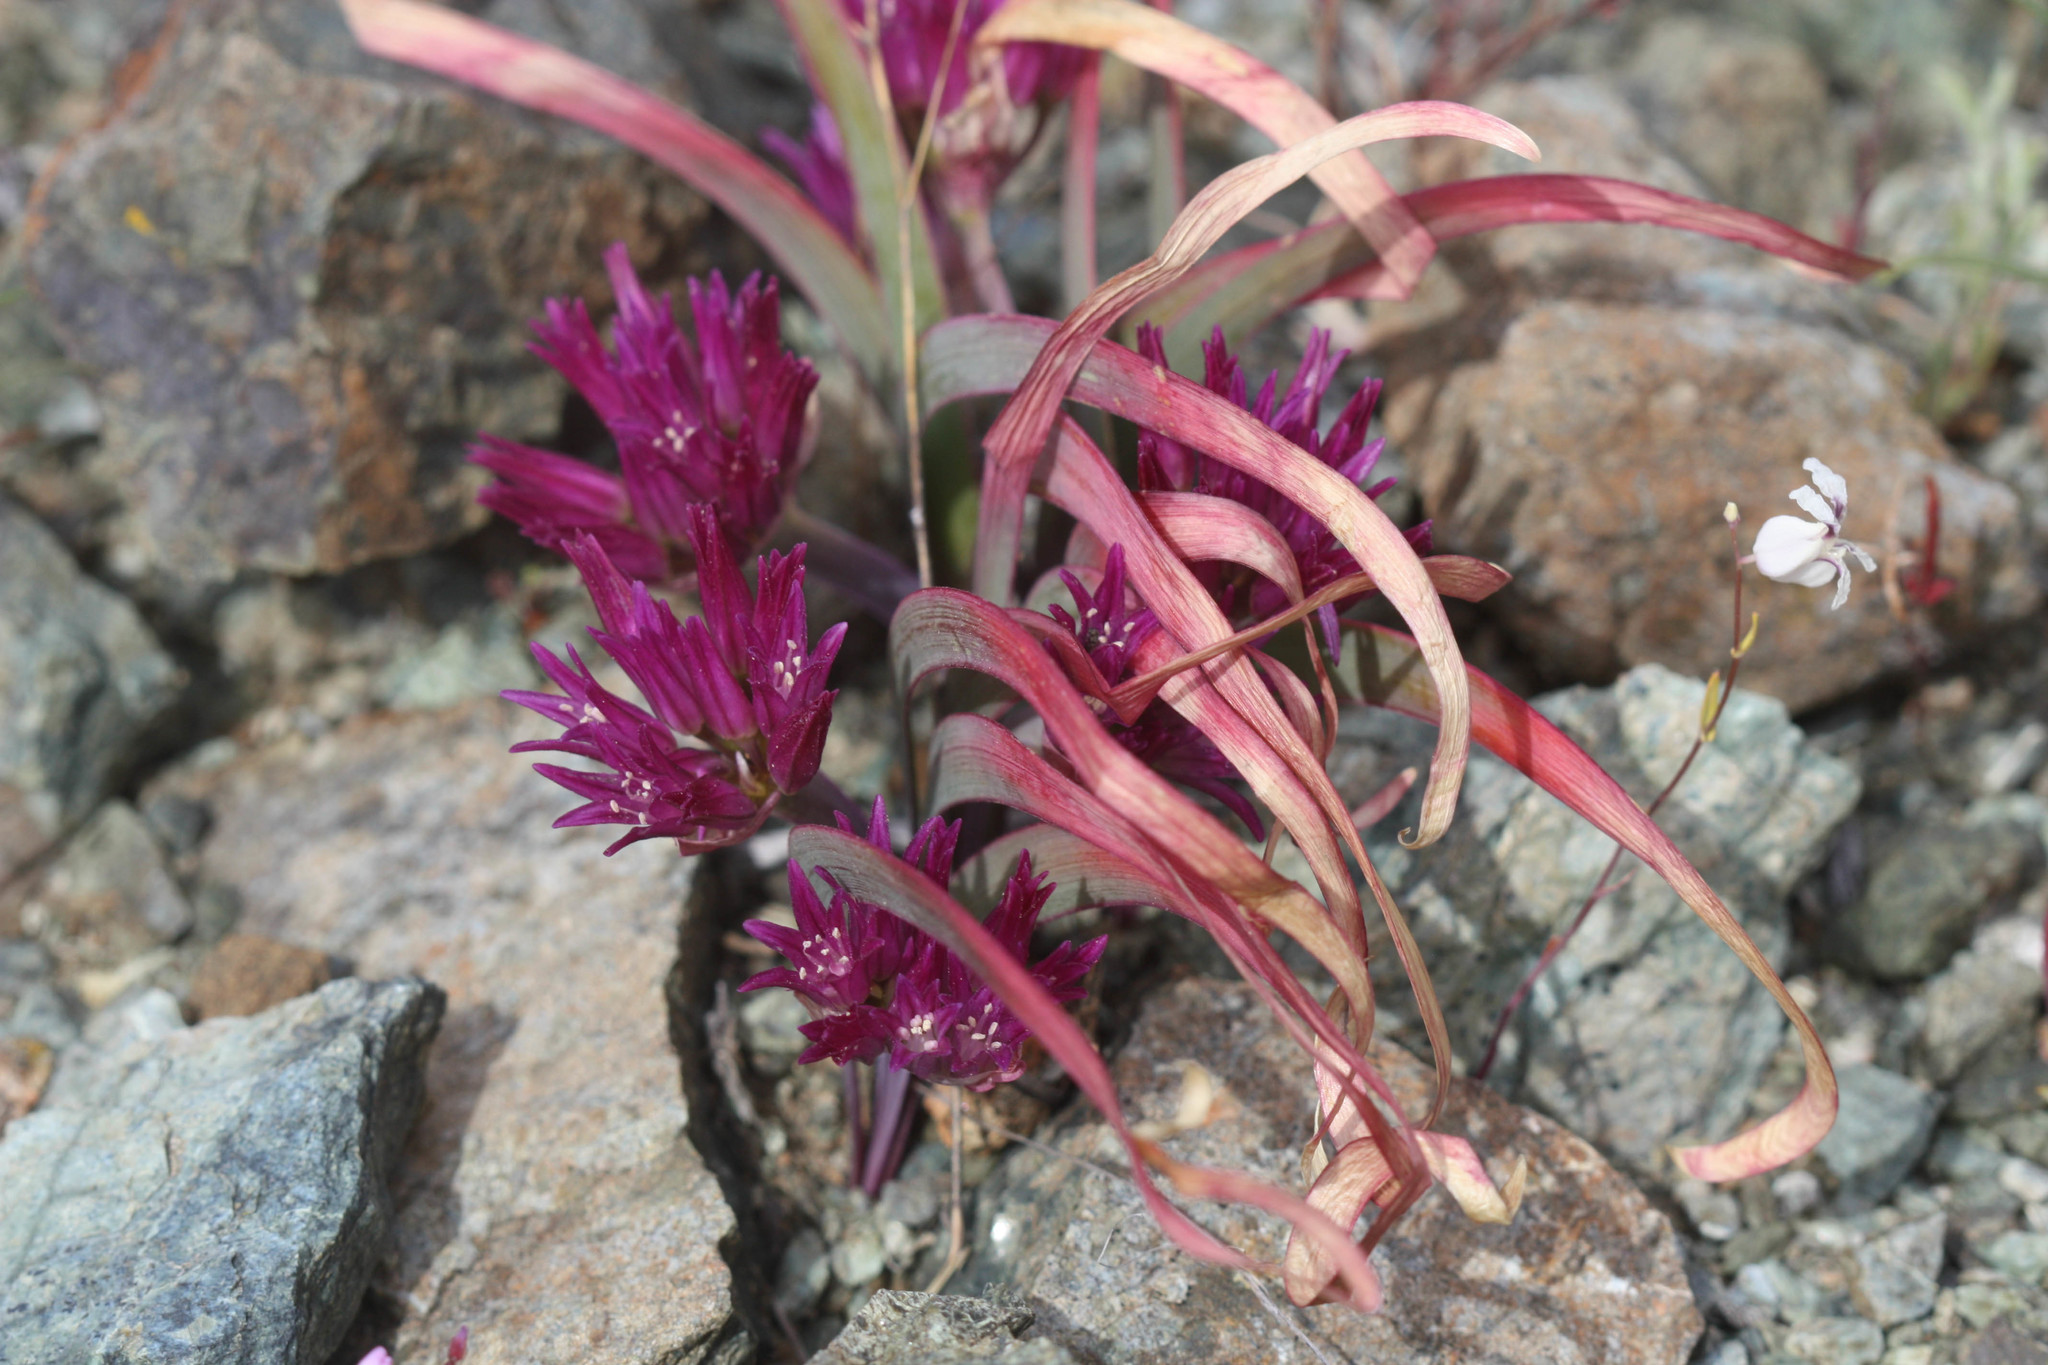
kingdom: Plantae
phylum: Tracheophyta
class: Liliopsida
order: Asparagales
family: Amaryllidaceae
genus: Allium
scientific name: Allium falcifolium
